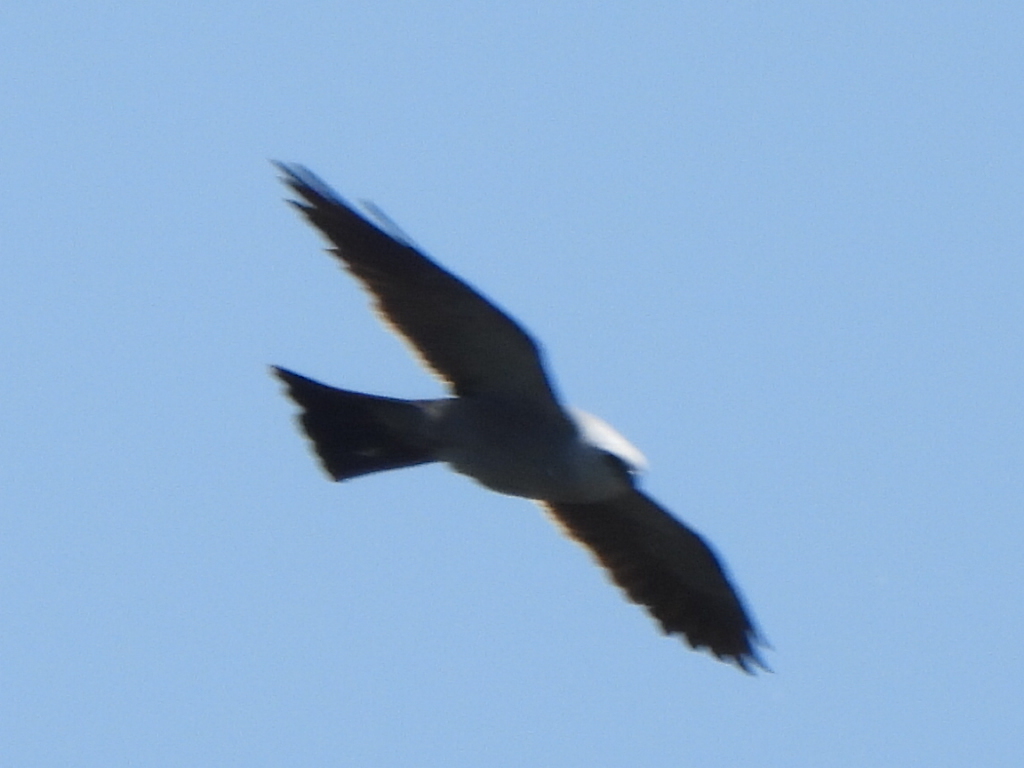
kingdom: Animalia
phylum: Chordata
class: Aves
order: Accipitriformes
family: Accipitridae
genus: Ictinia
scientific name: Ictinia mississippiensis
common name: Mississippi kite
